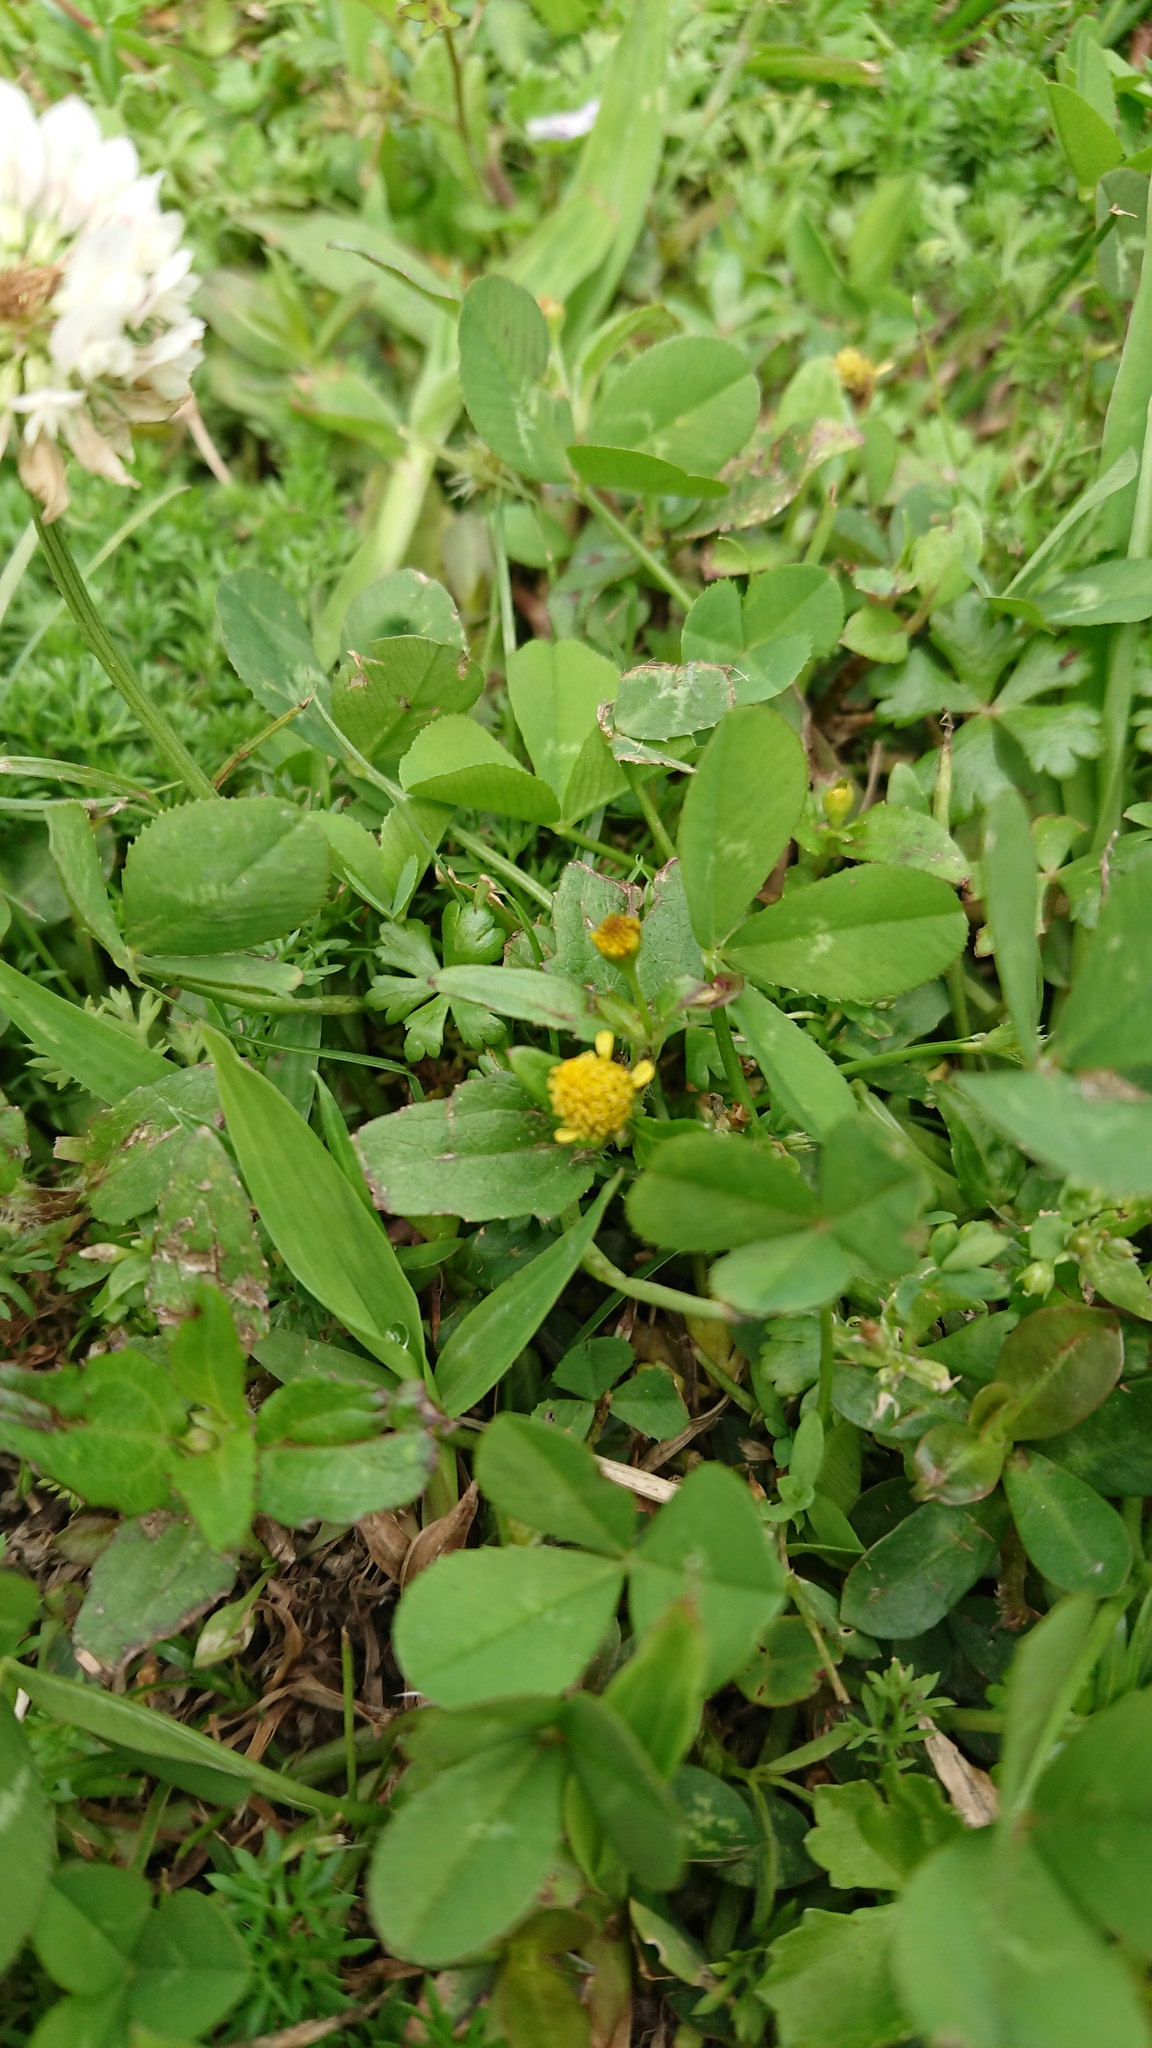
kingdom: Plantae
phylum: Tracheophyta
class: Magnoliopsida
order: Asterales
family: Asteraceae
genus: Acmella
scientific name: Acmella uliginosa
